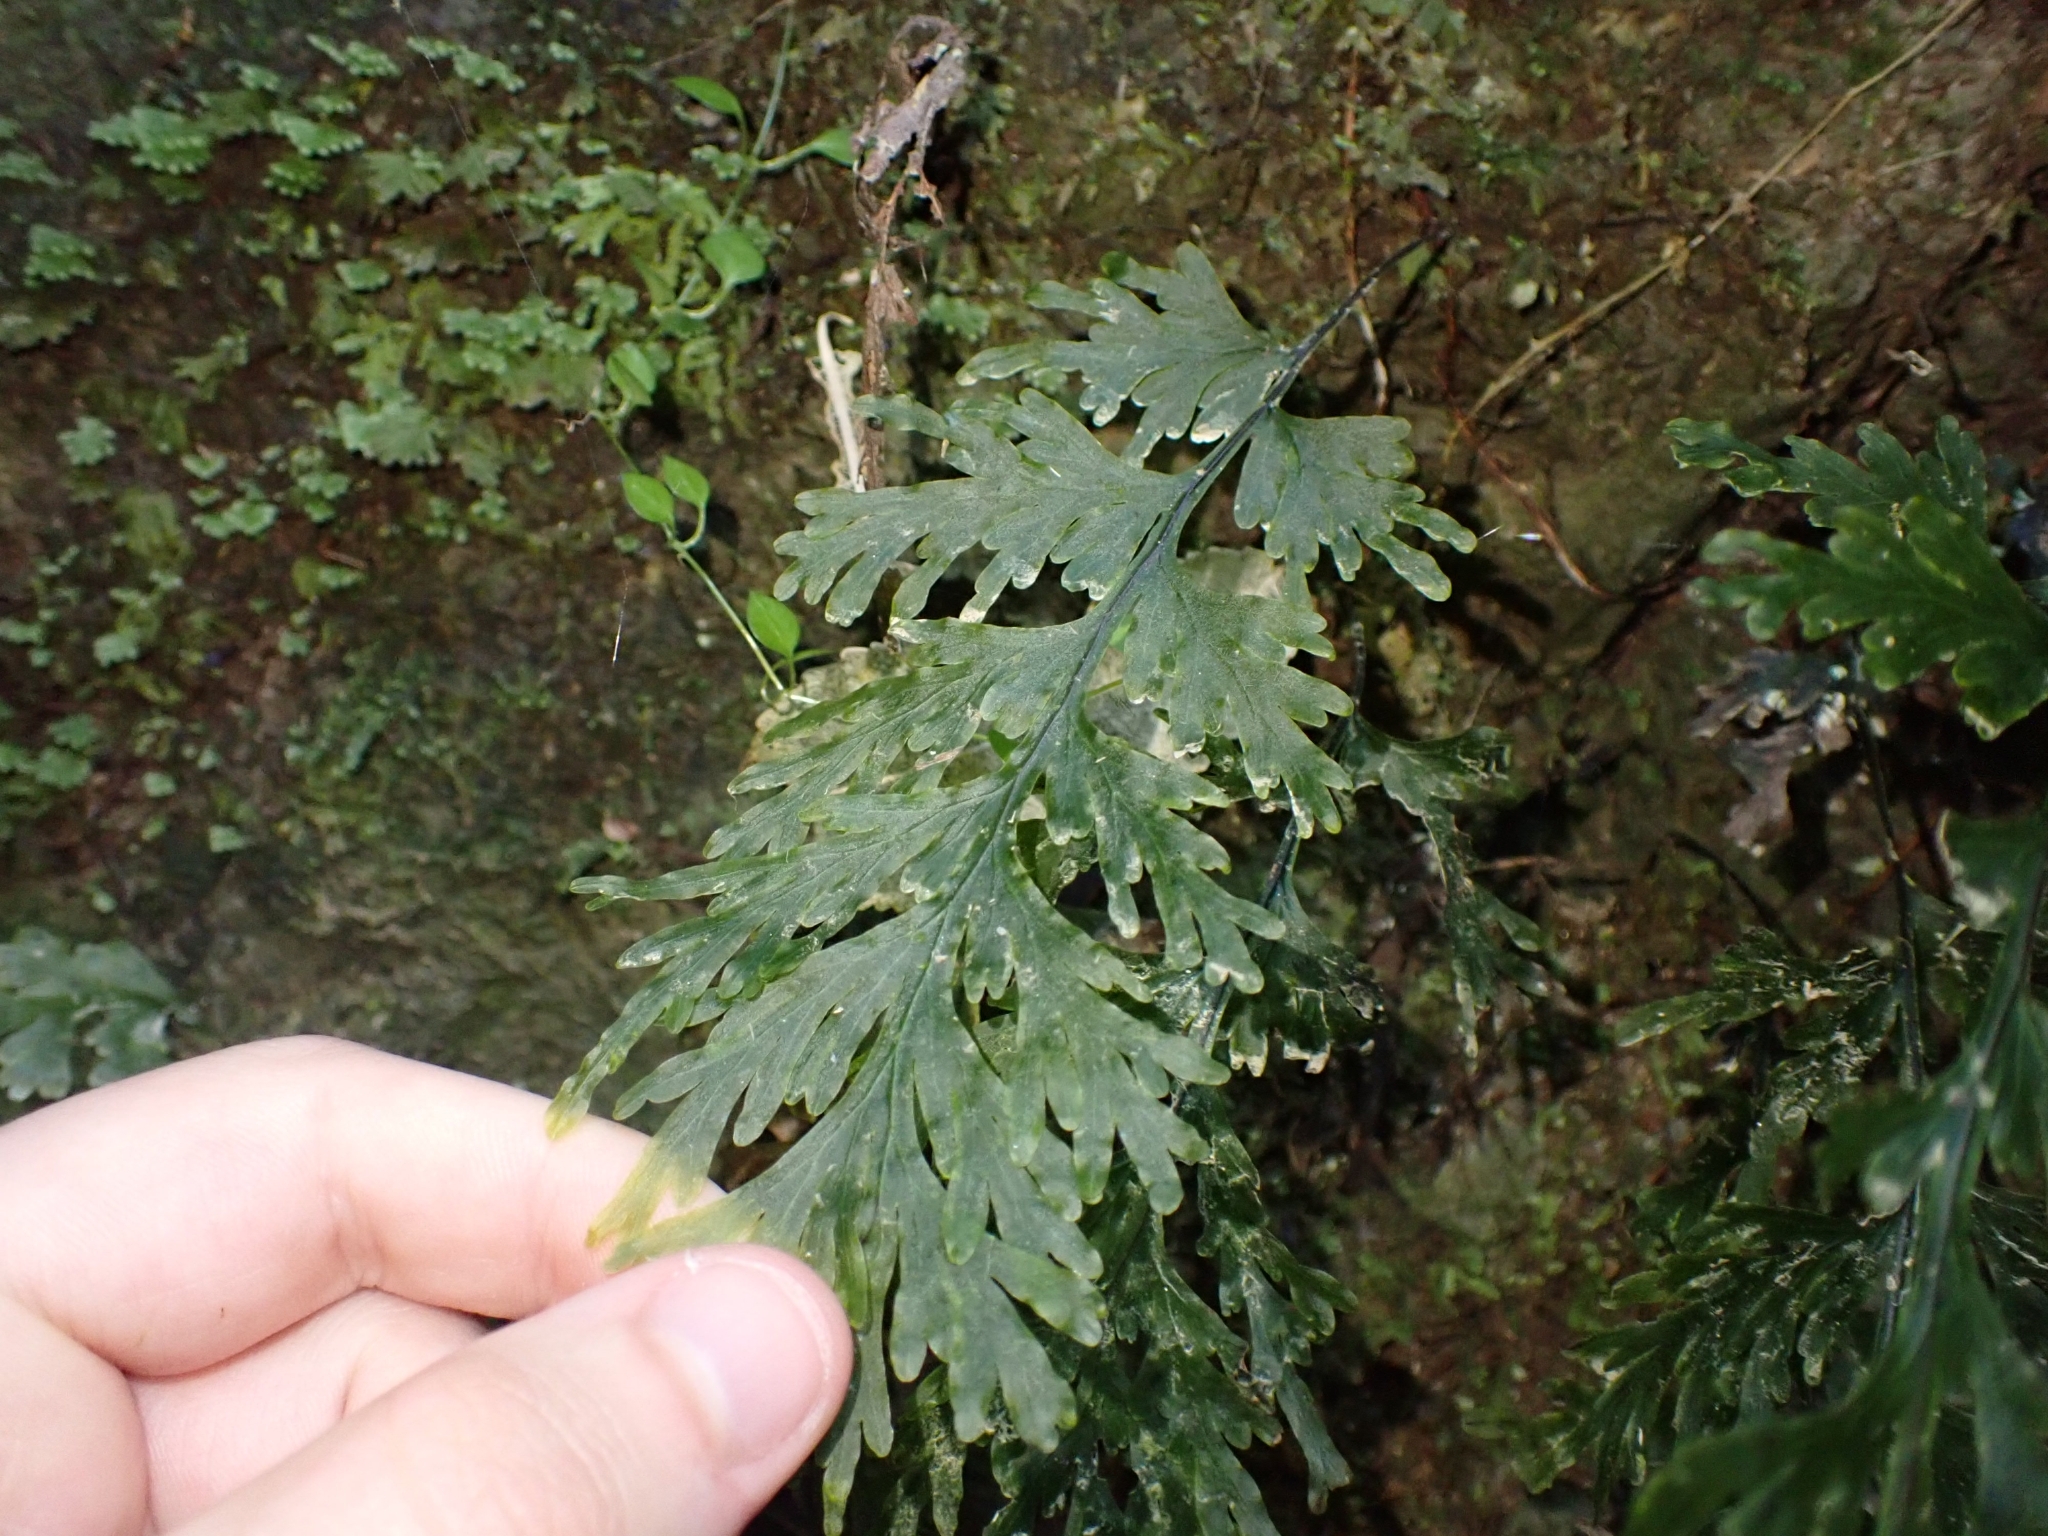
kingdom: Plantae
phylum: Tracheophyta
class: Polypodiopsida
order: Hymenophyllales
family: Hymenophyllaceae
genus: Hymenophyllum
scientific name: Hymenophyllum dilatatum
